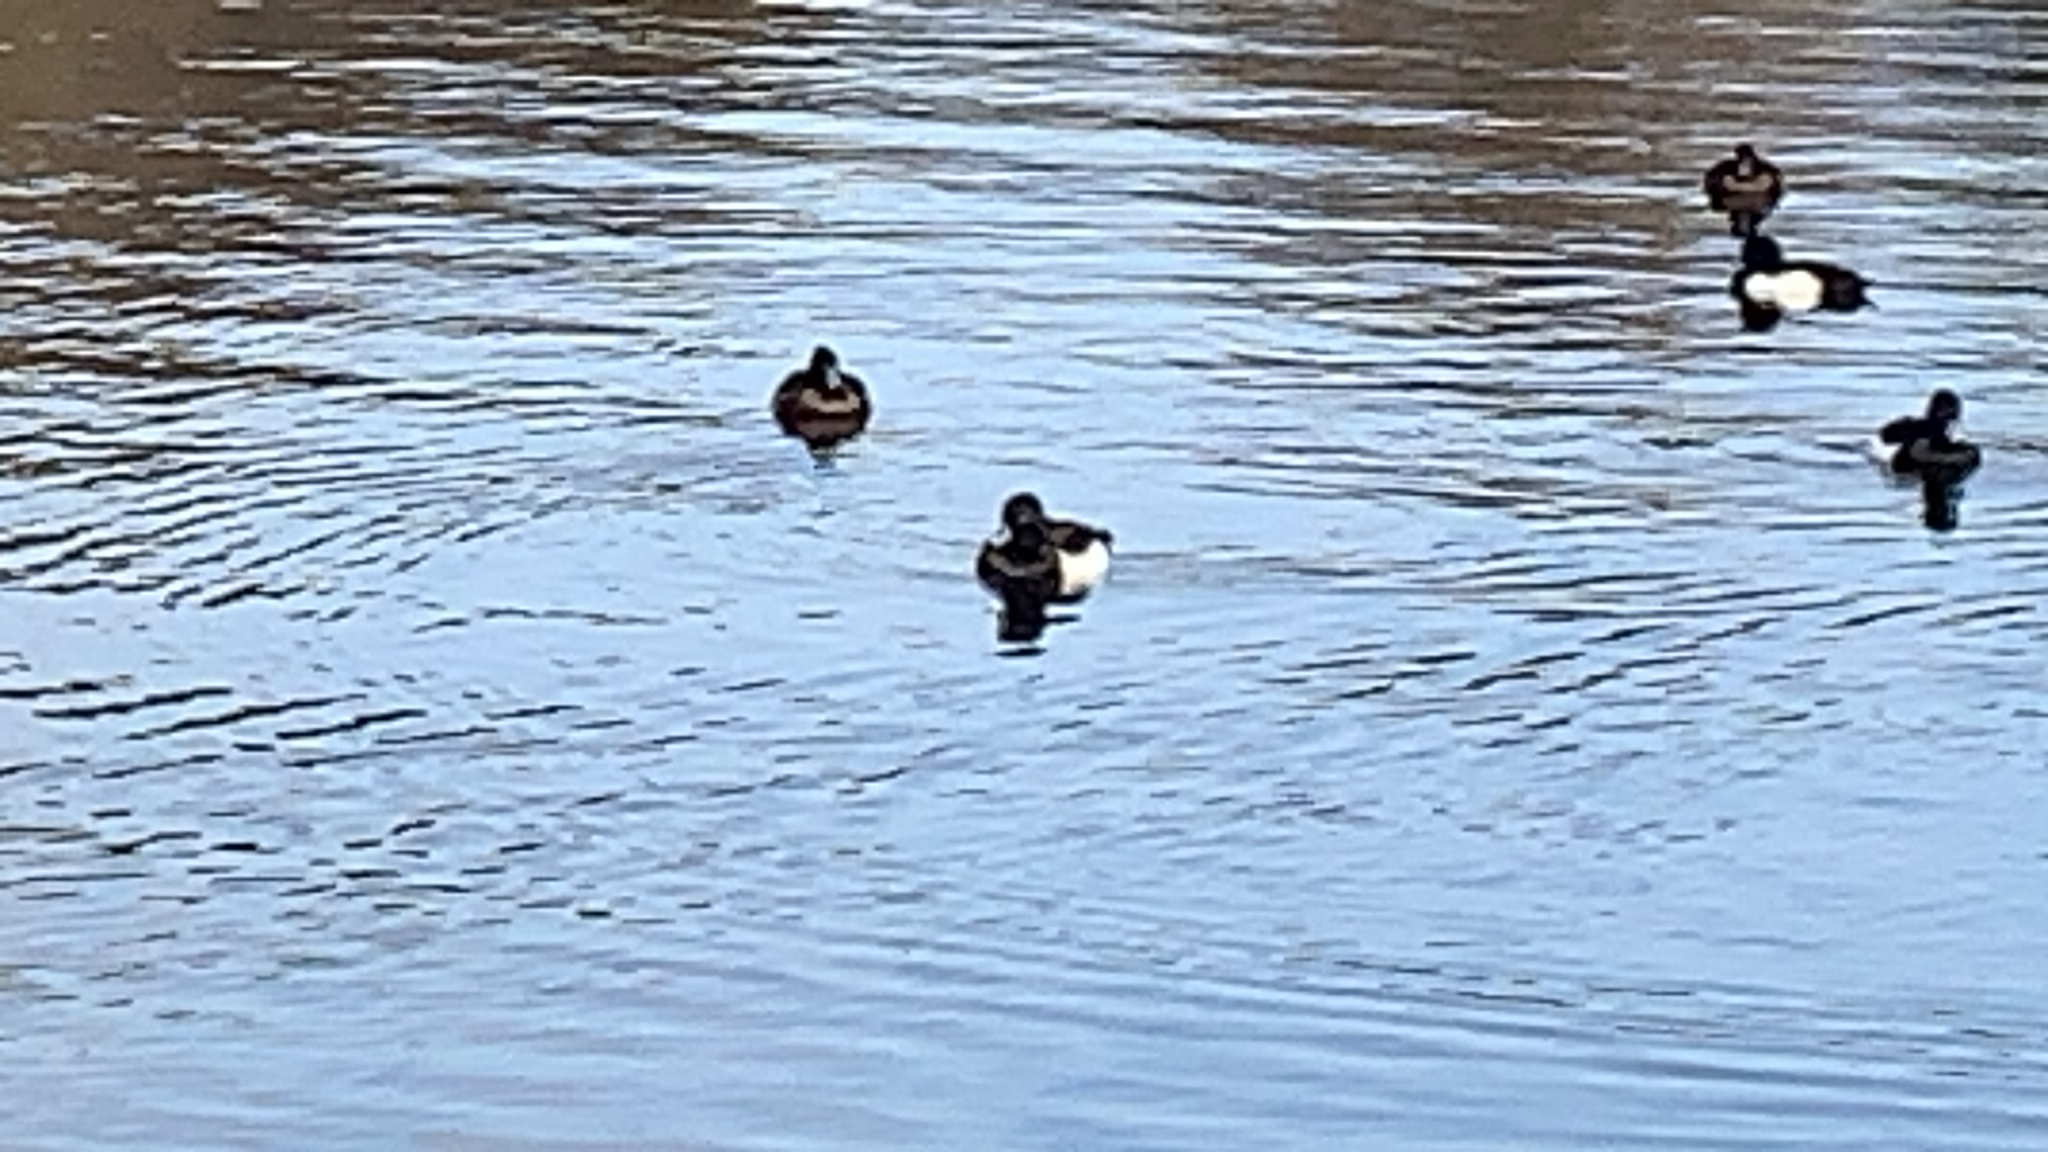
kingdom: Animalia
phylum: Chordata
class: Aves
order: Anseriformes
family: Anatidae
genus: Aythya
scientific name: Aythya fuligula
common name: Tufted duck
